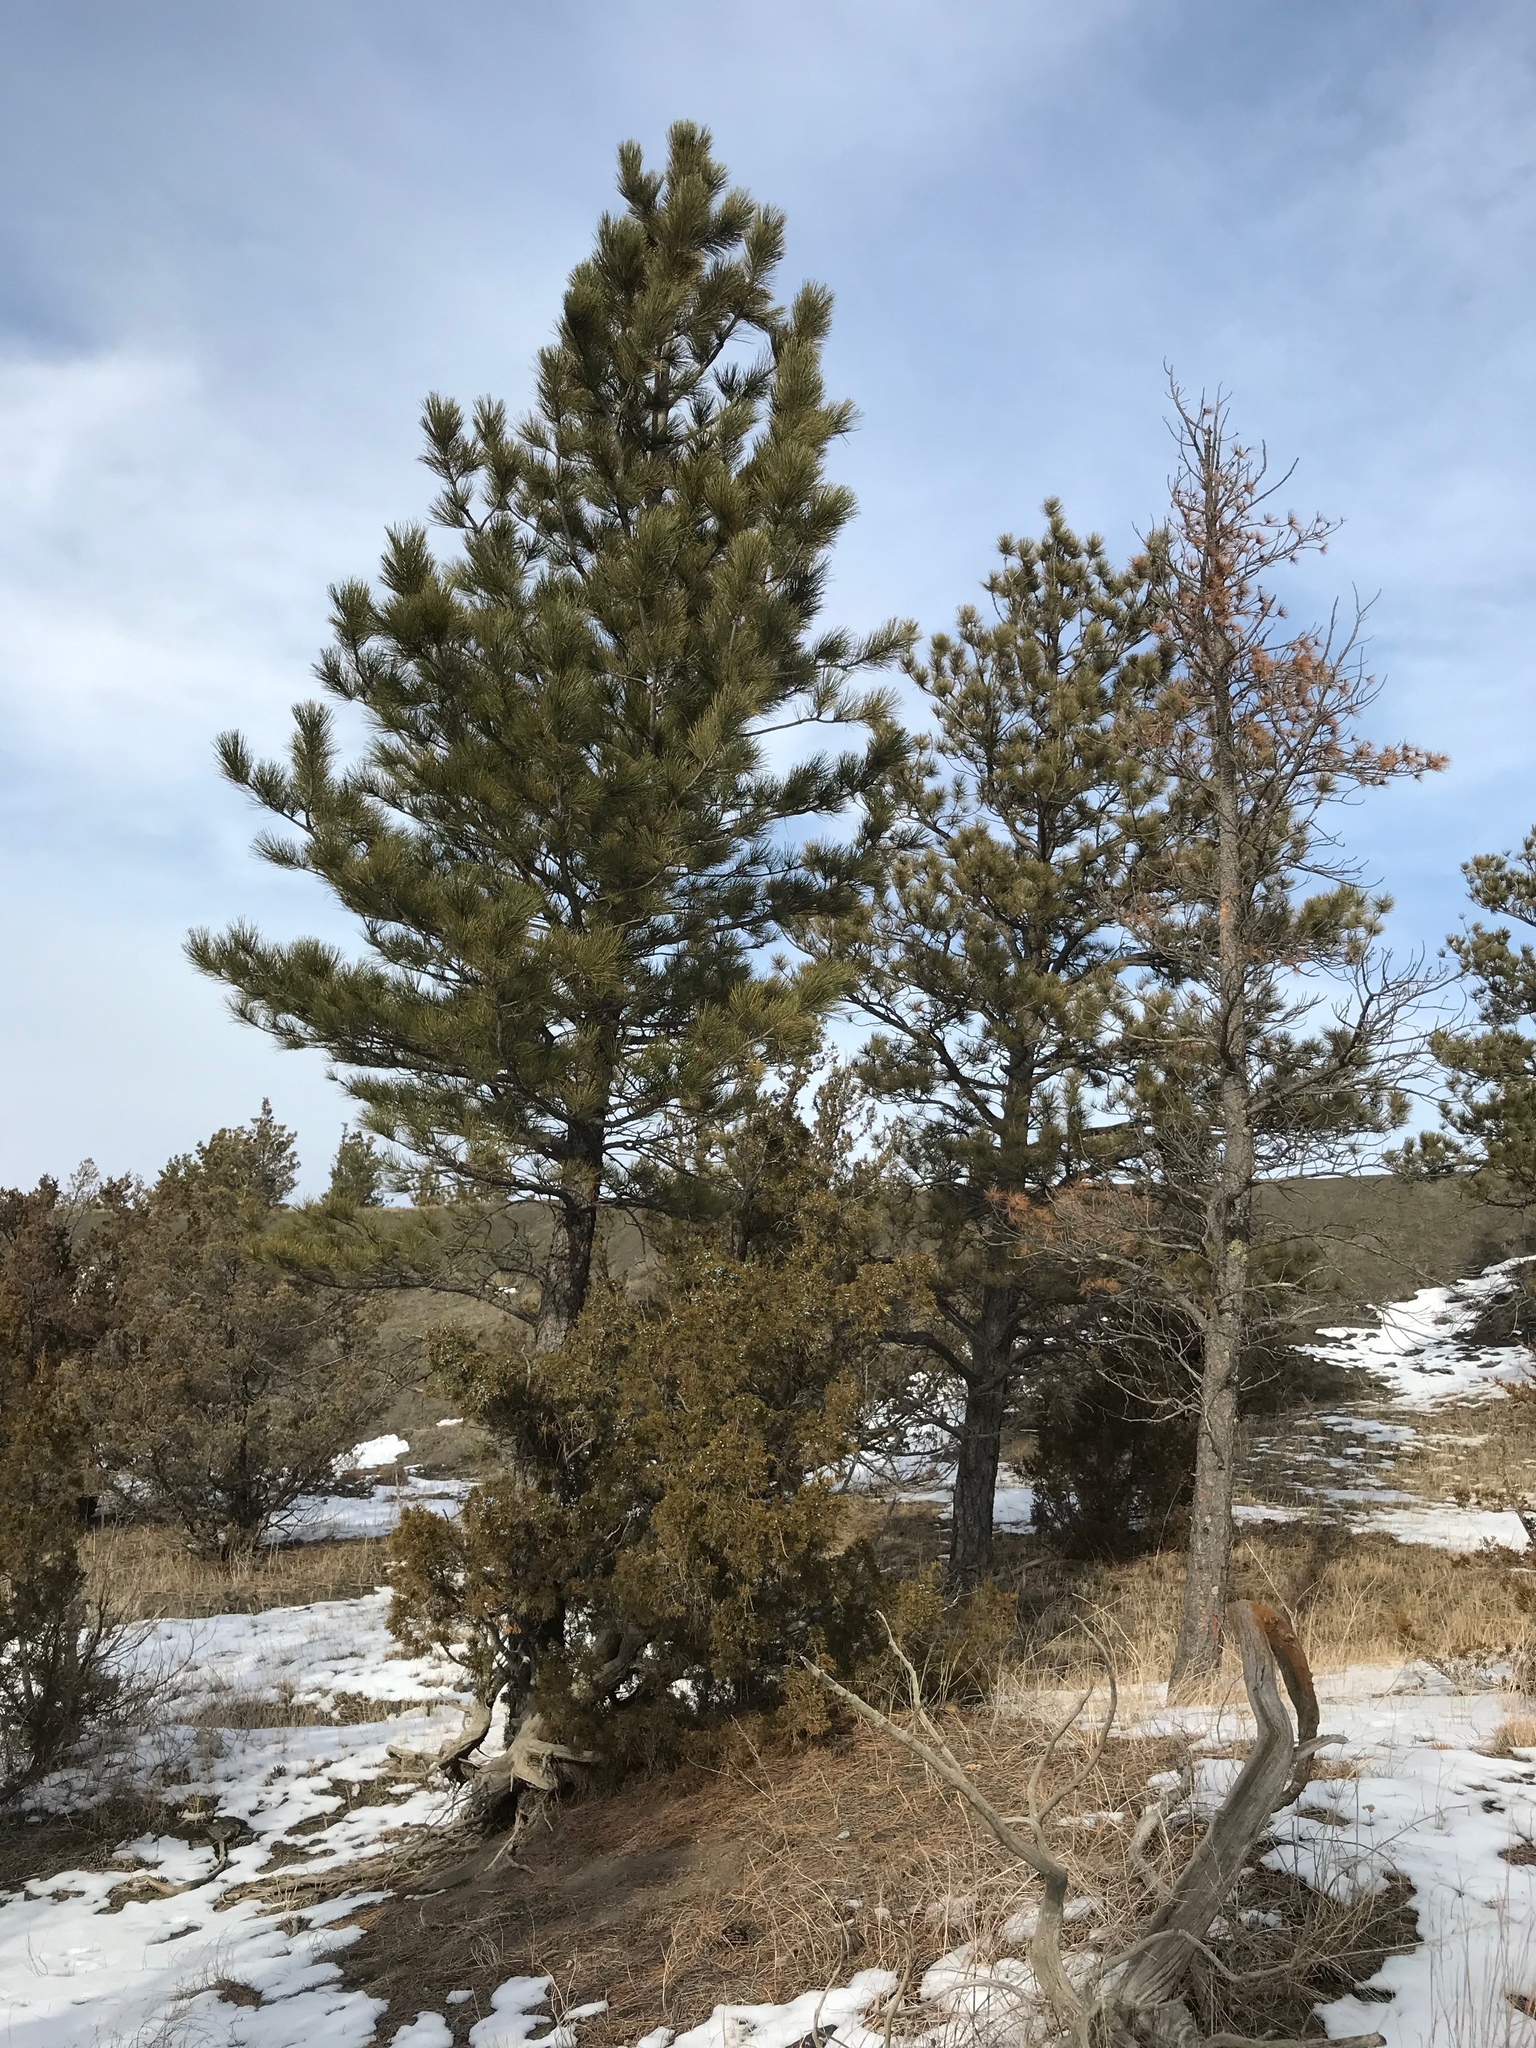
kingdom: Plantae
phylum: Tracheophyta
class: Pinopsida
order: Pinales
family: Pinaceae
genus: Pinus
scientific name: Pinus ponderosa
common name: Western yellow-pine
